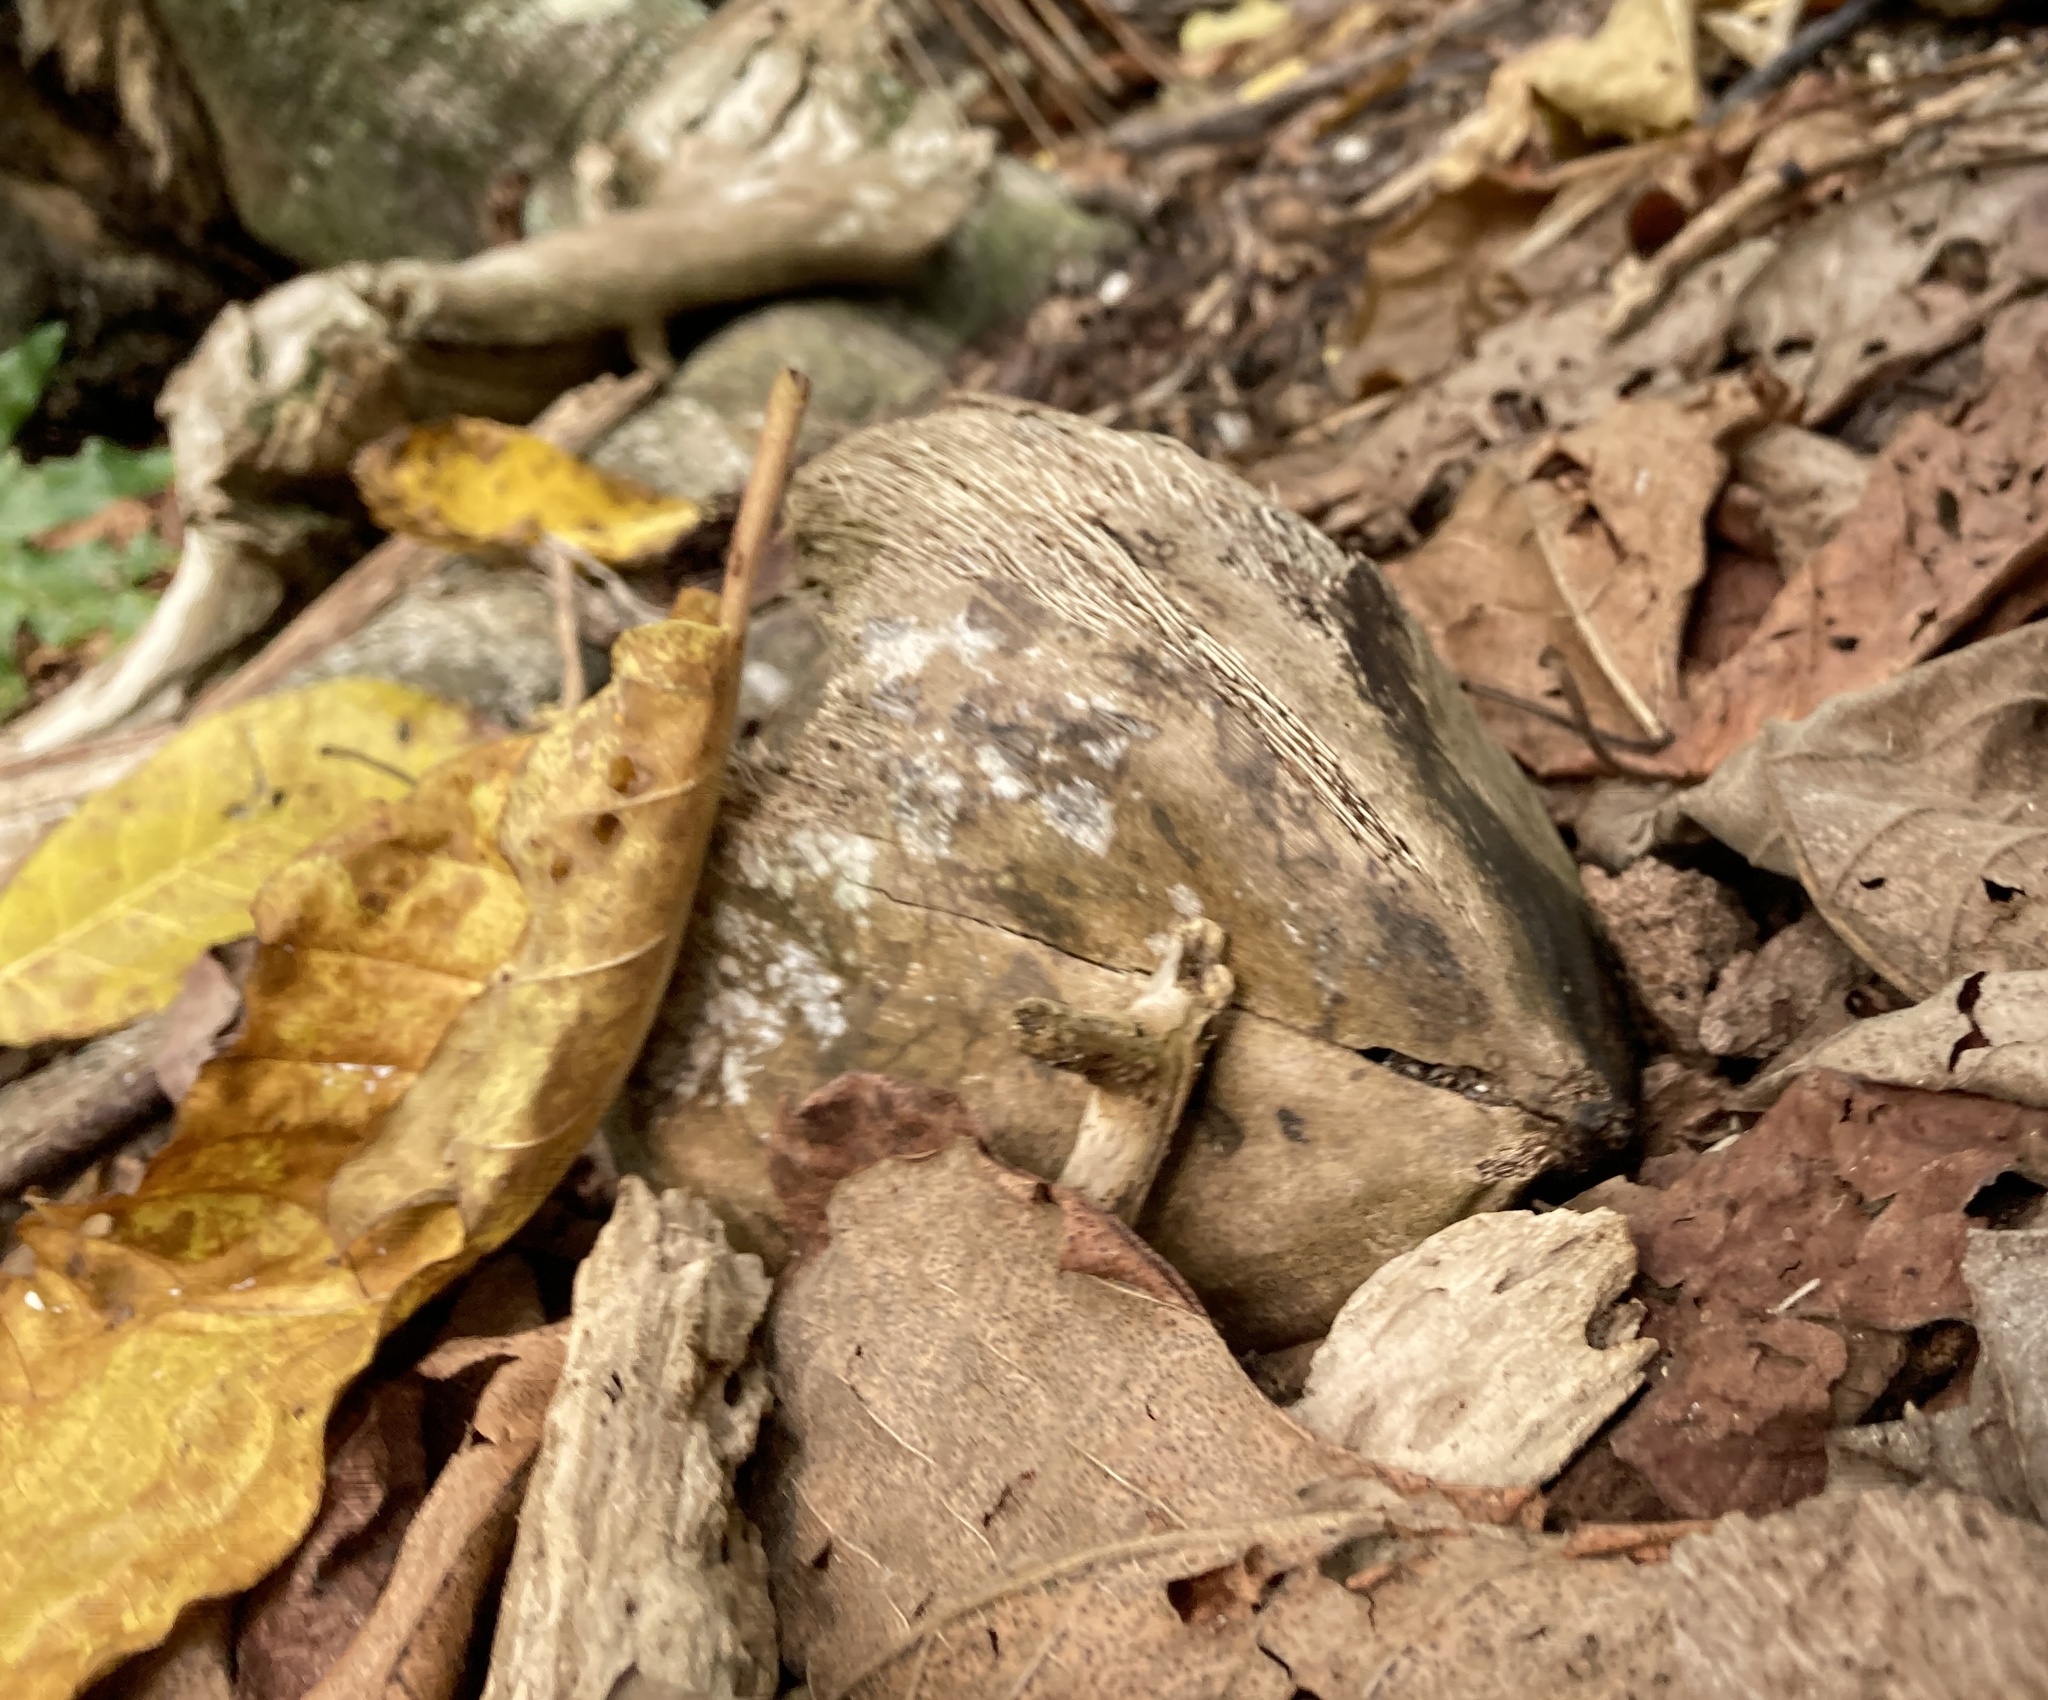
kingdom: Plantae
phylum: Tracheophyta
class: Liliopsida
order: Arecales
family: Arecaceae
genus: Cocos
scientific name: Cocos nucifera
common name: Coconut palm
